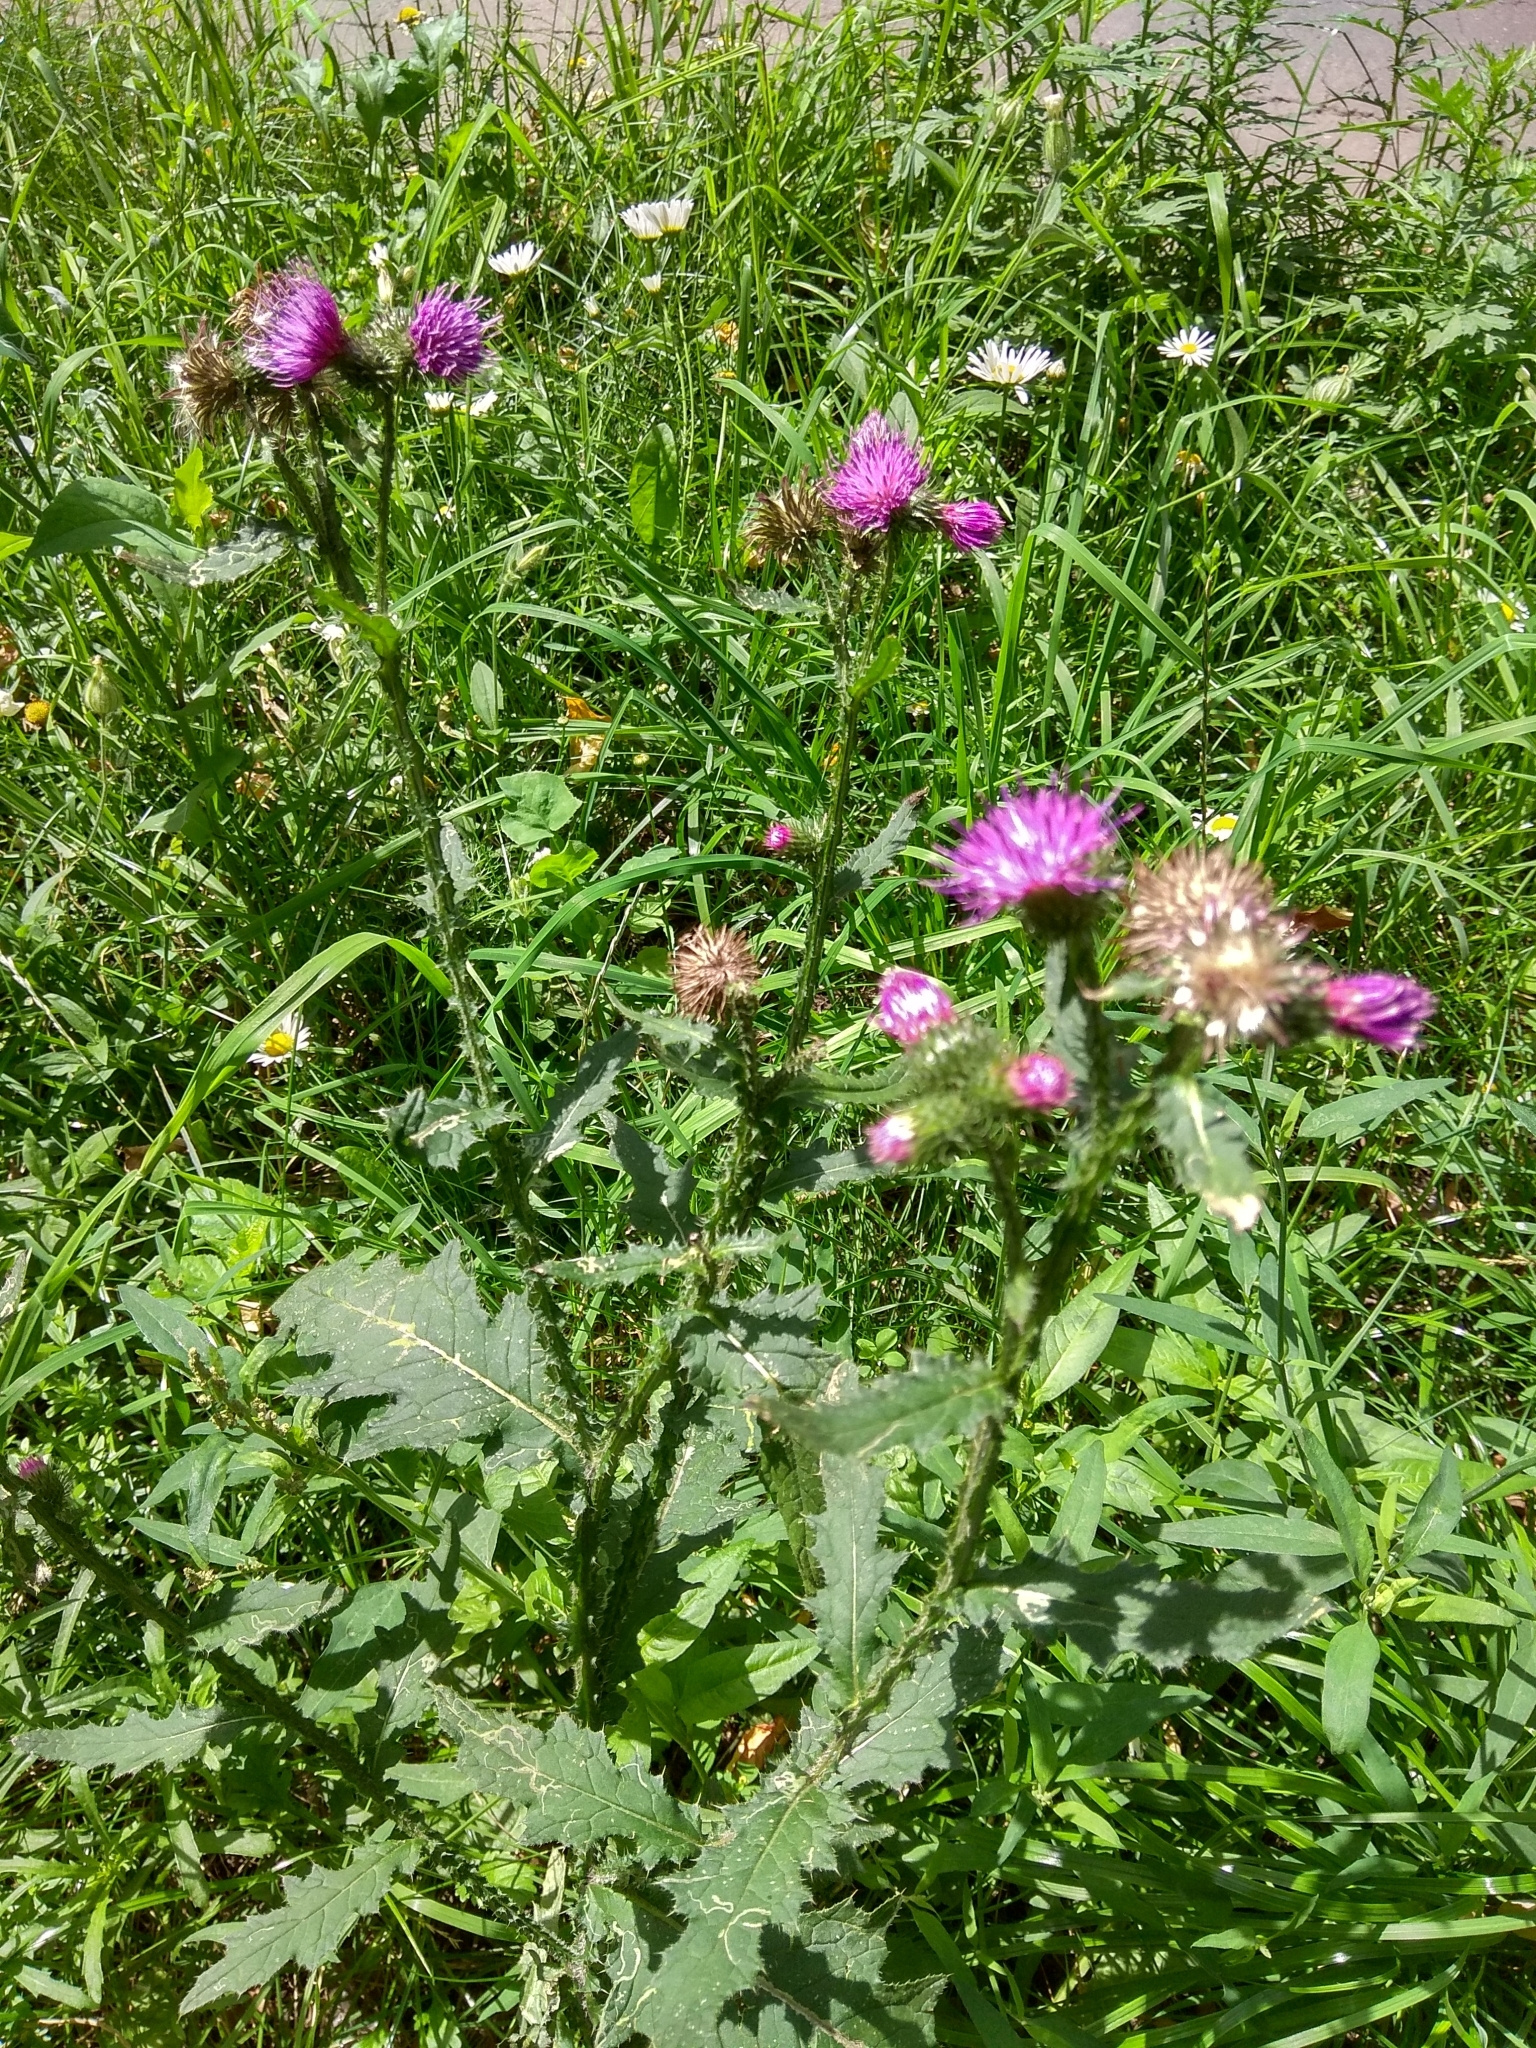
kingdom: Plantae
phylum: Tracheophyta
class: Magnoliopsida
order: Asterales
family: Asteraceae
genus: Carduus
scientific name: Carduus crispus
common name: Welted thistle
